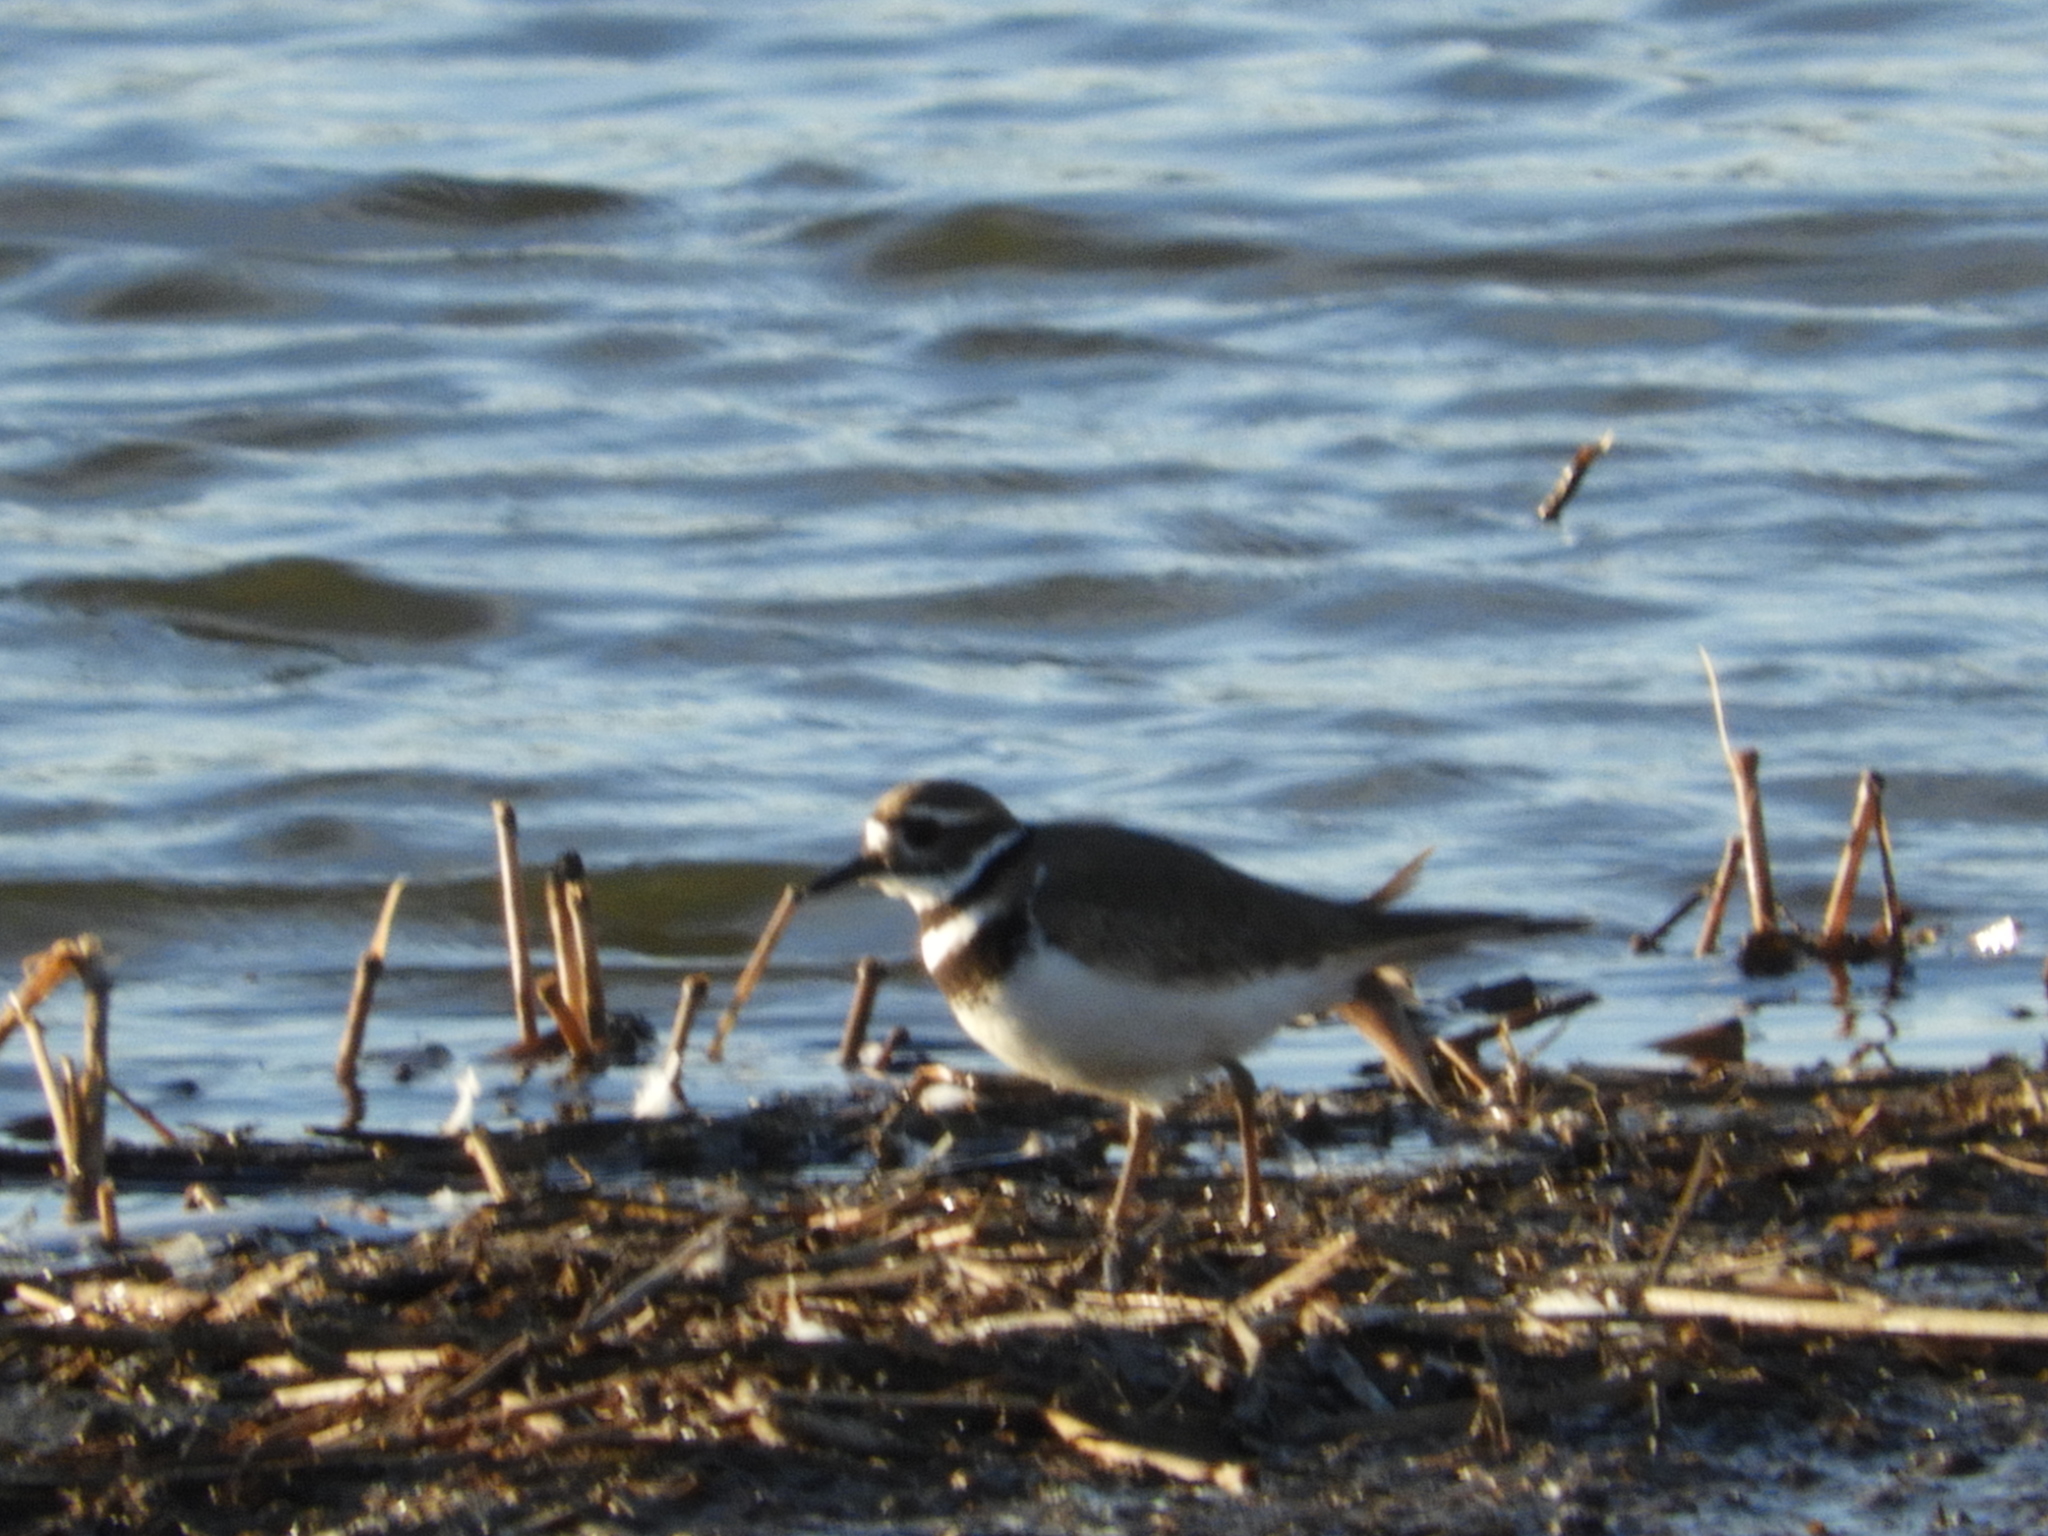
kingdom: Animalia
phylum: Chordata
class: Aves
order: Charadriiformes
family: Charadriidae
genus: Charadrius
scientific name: Charadrius vociferus
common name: Killdeer
